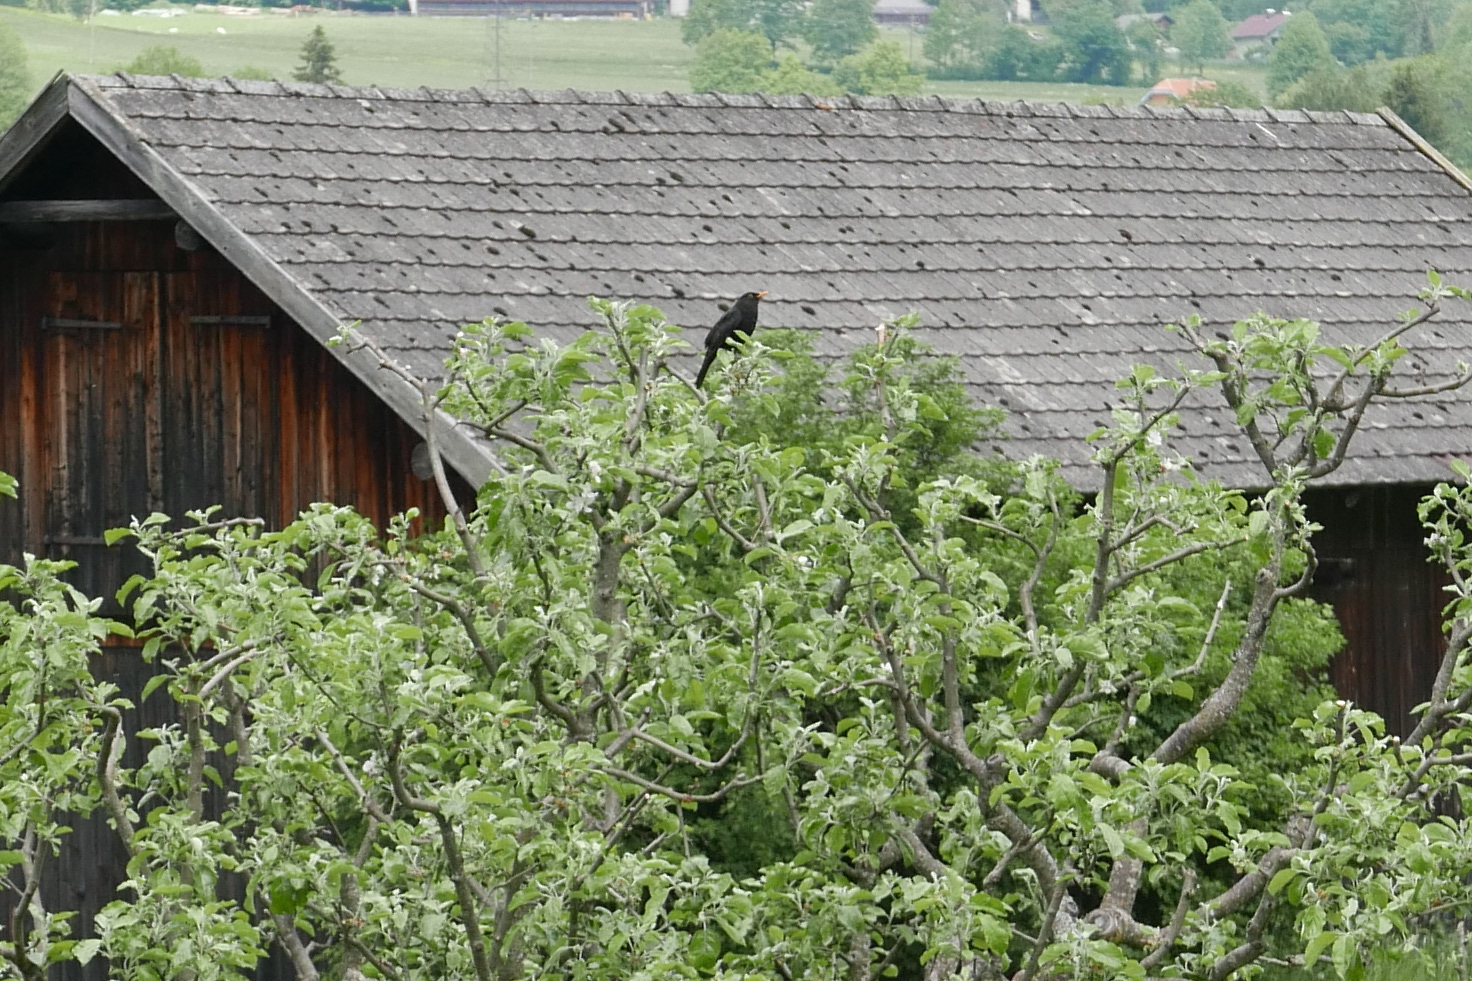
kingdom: Animalia
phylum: Chordata
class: Aves
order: Passeriformes
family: Turdidae
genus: Turdus
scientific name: Turdus merula
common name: Common blackbird
